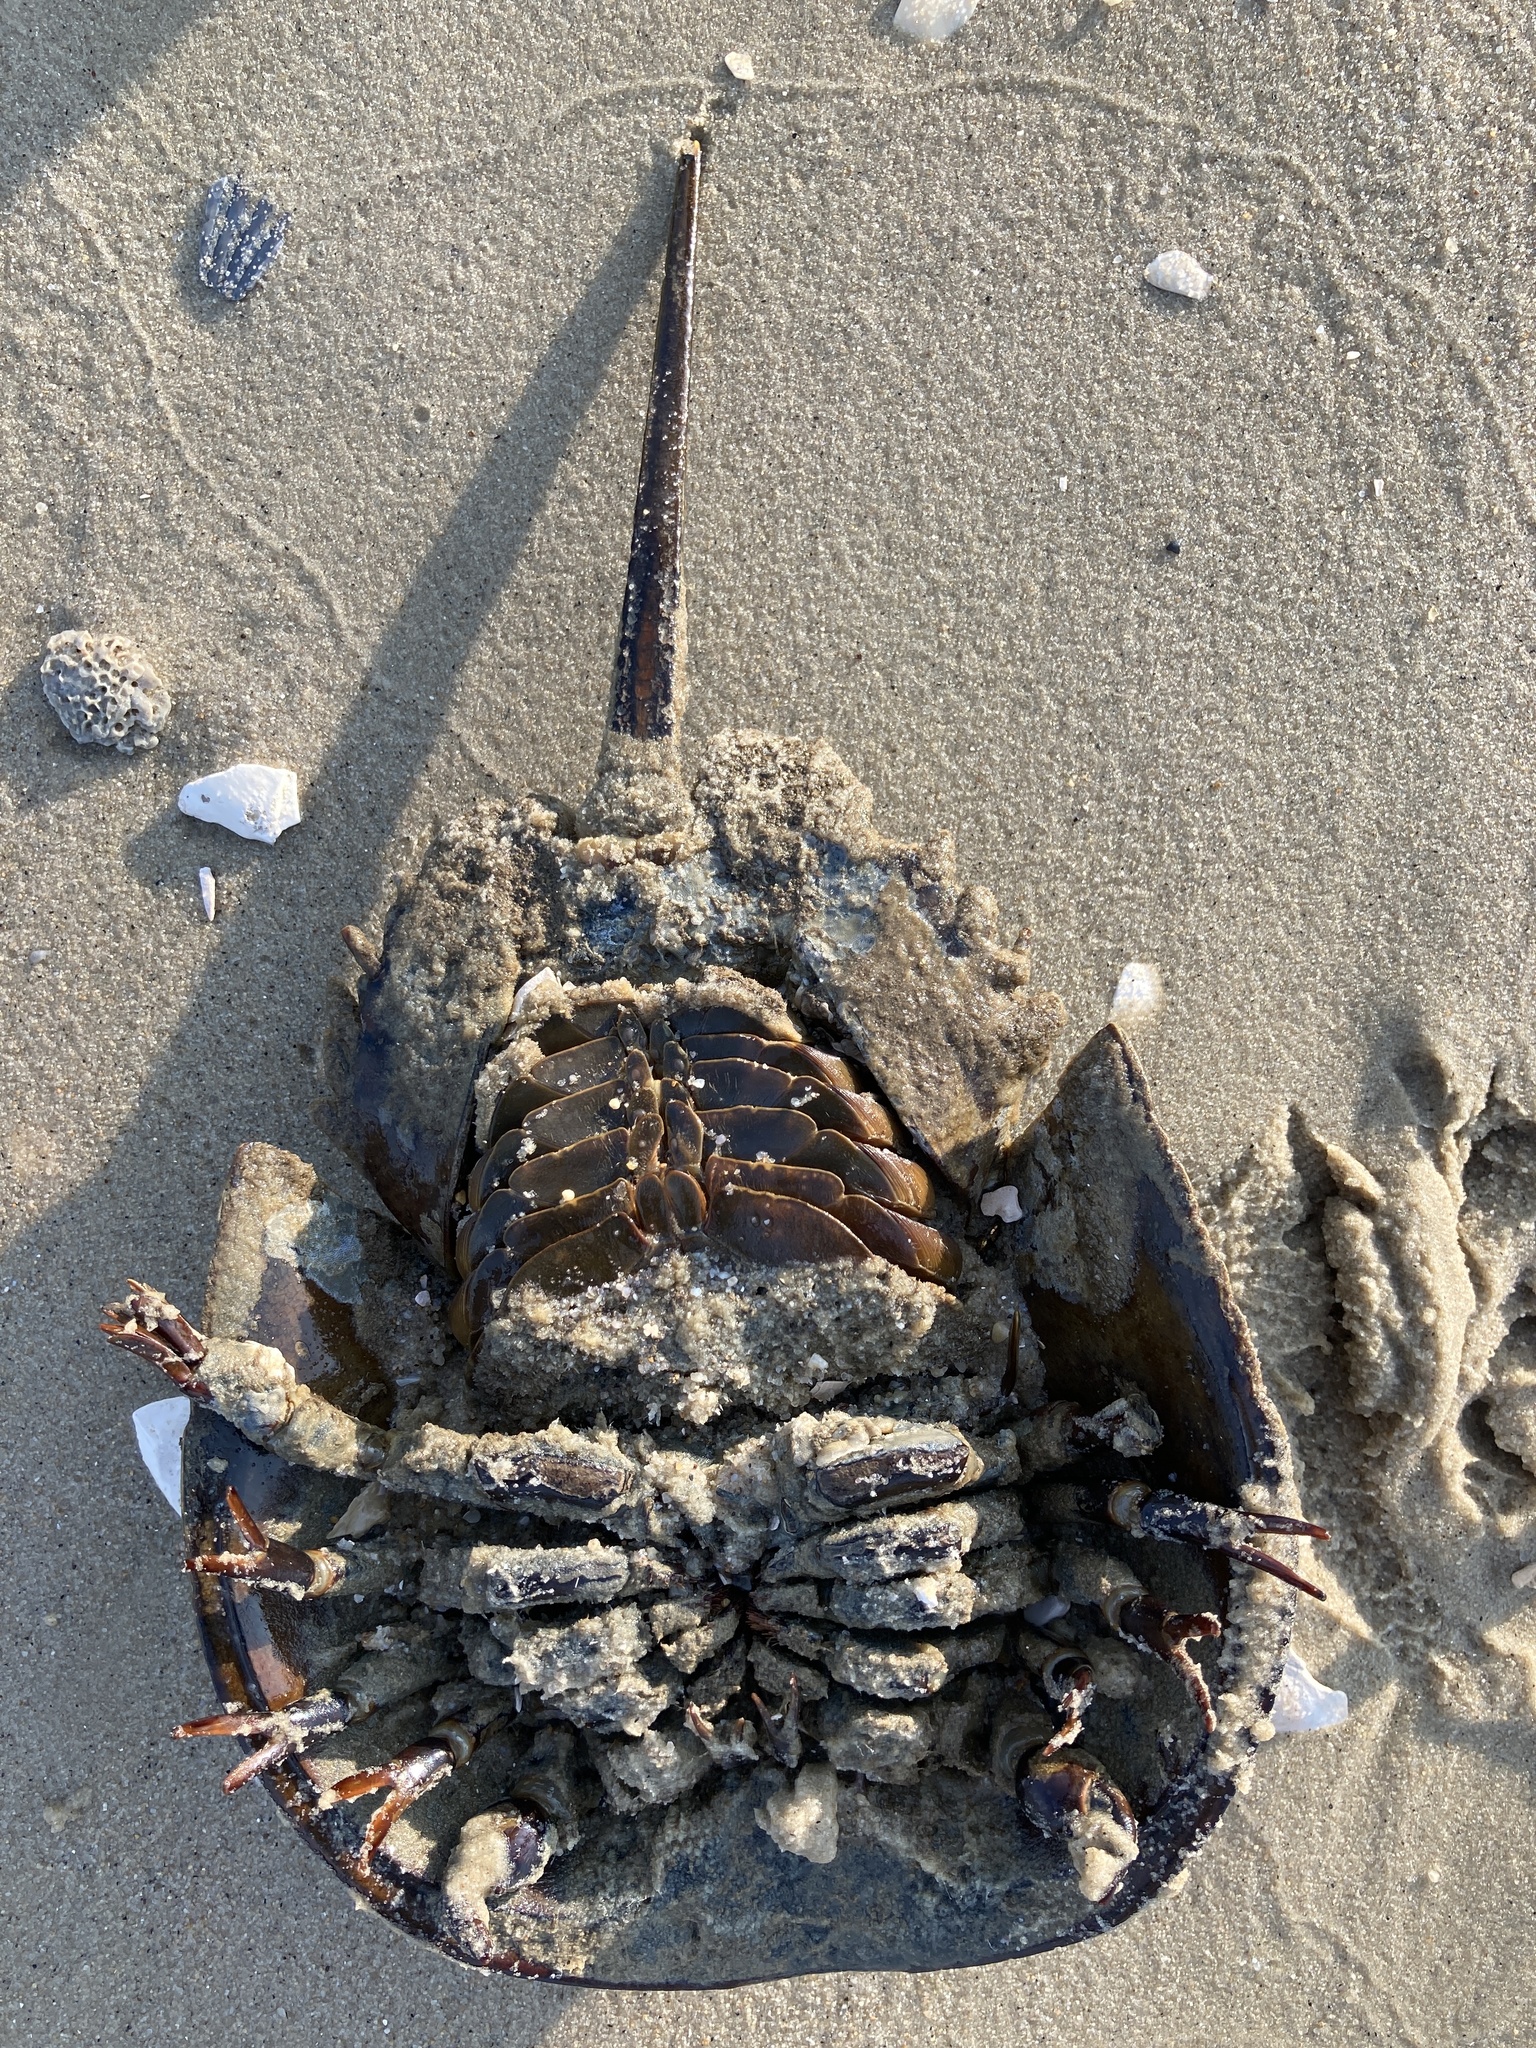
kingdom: Animalia
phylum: Arthropoda
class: Merostomata
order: Xiphosurida
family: Limulidae
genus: Limulus
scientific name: Limulus polyphemus
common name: Horseshoe crab
